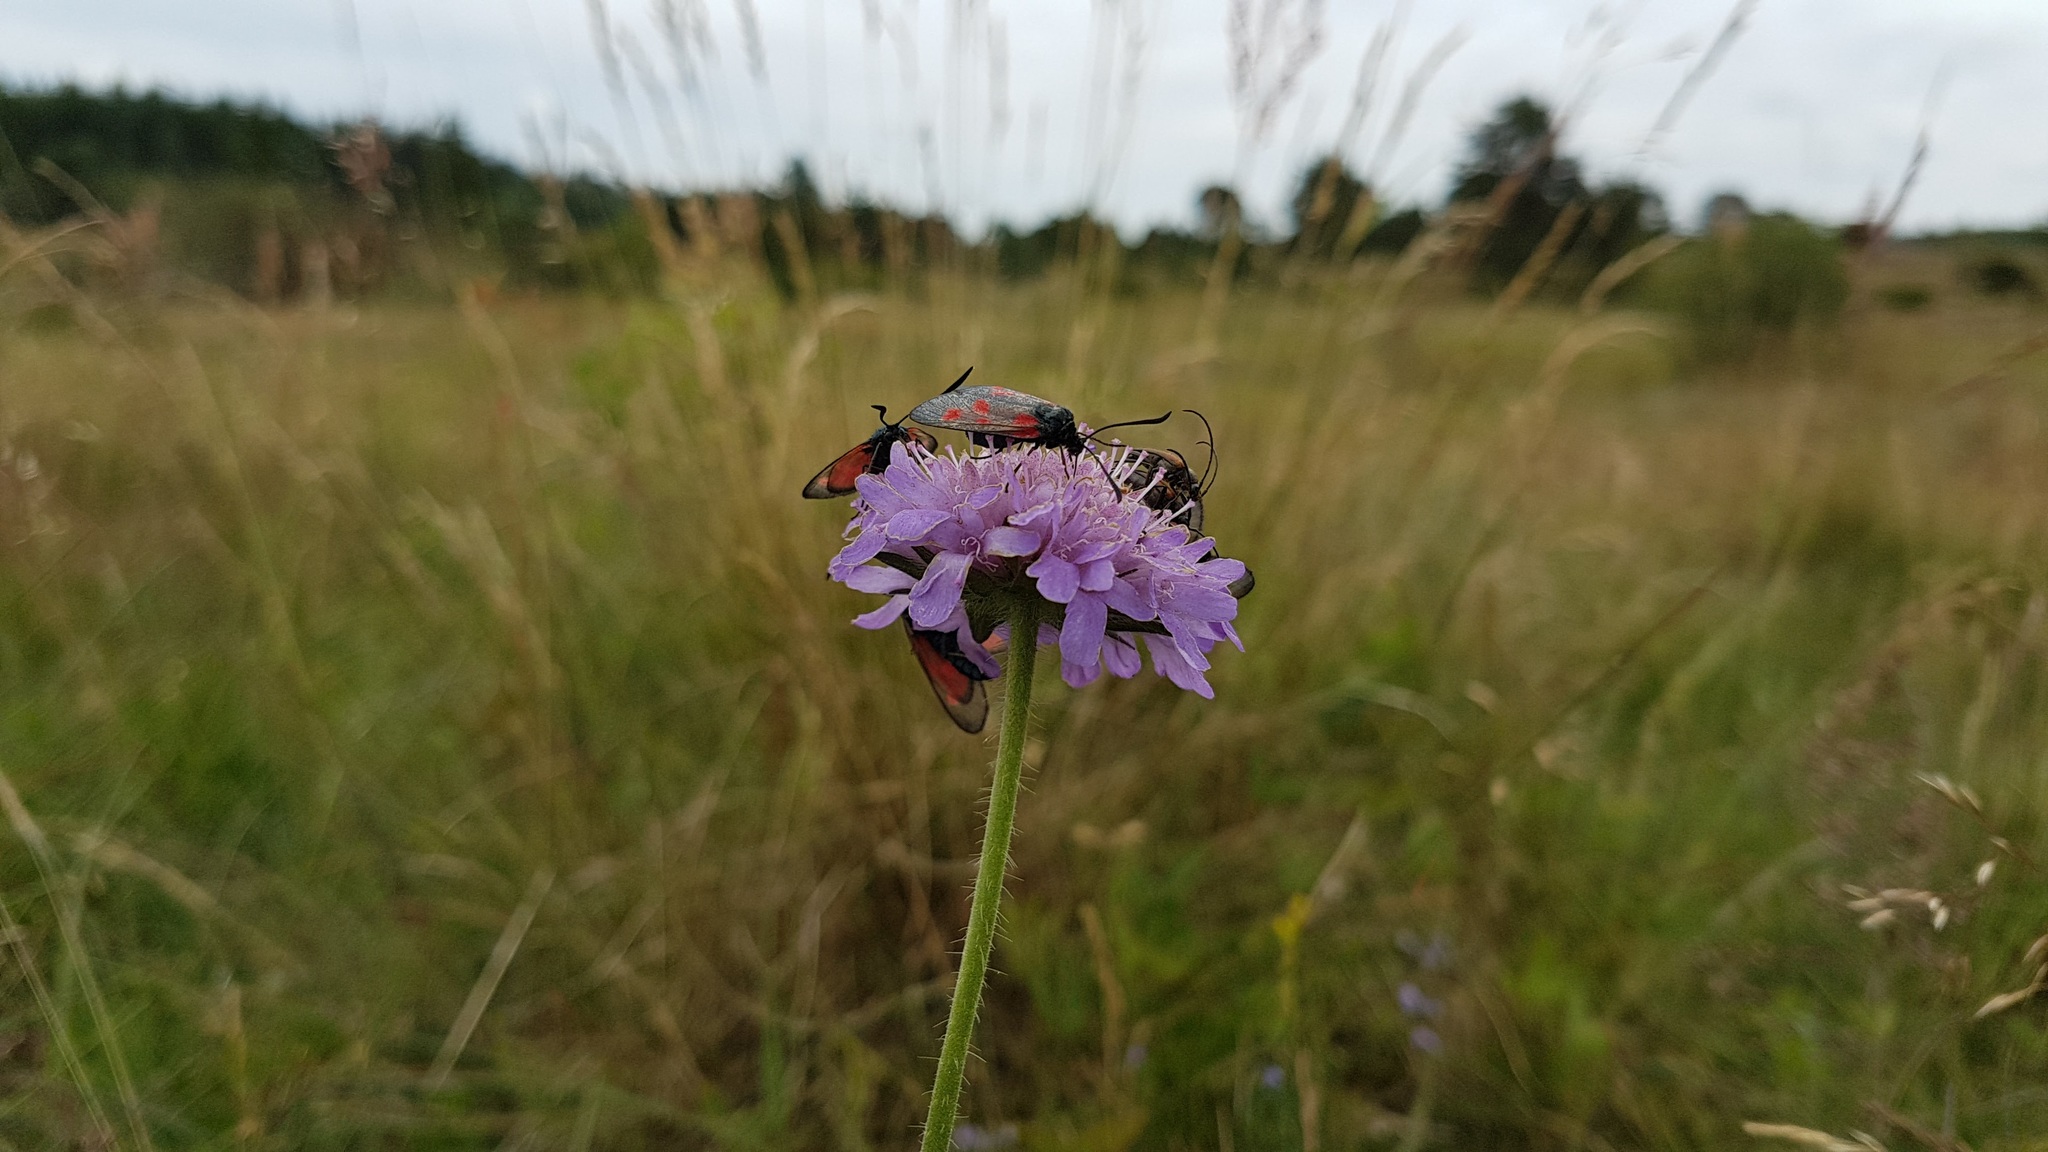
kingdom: Animalia
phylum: Arthropoda
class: Insecta
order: Lepidoptera
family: Zygaenidae
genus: Zygaena
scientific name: Zygaena viciae
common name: New forest burnet
